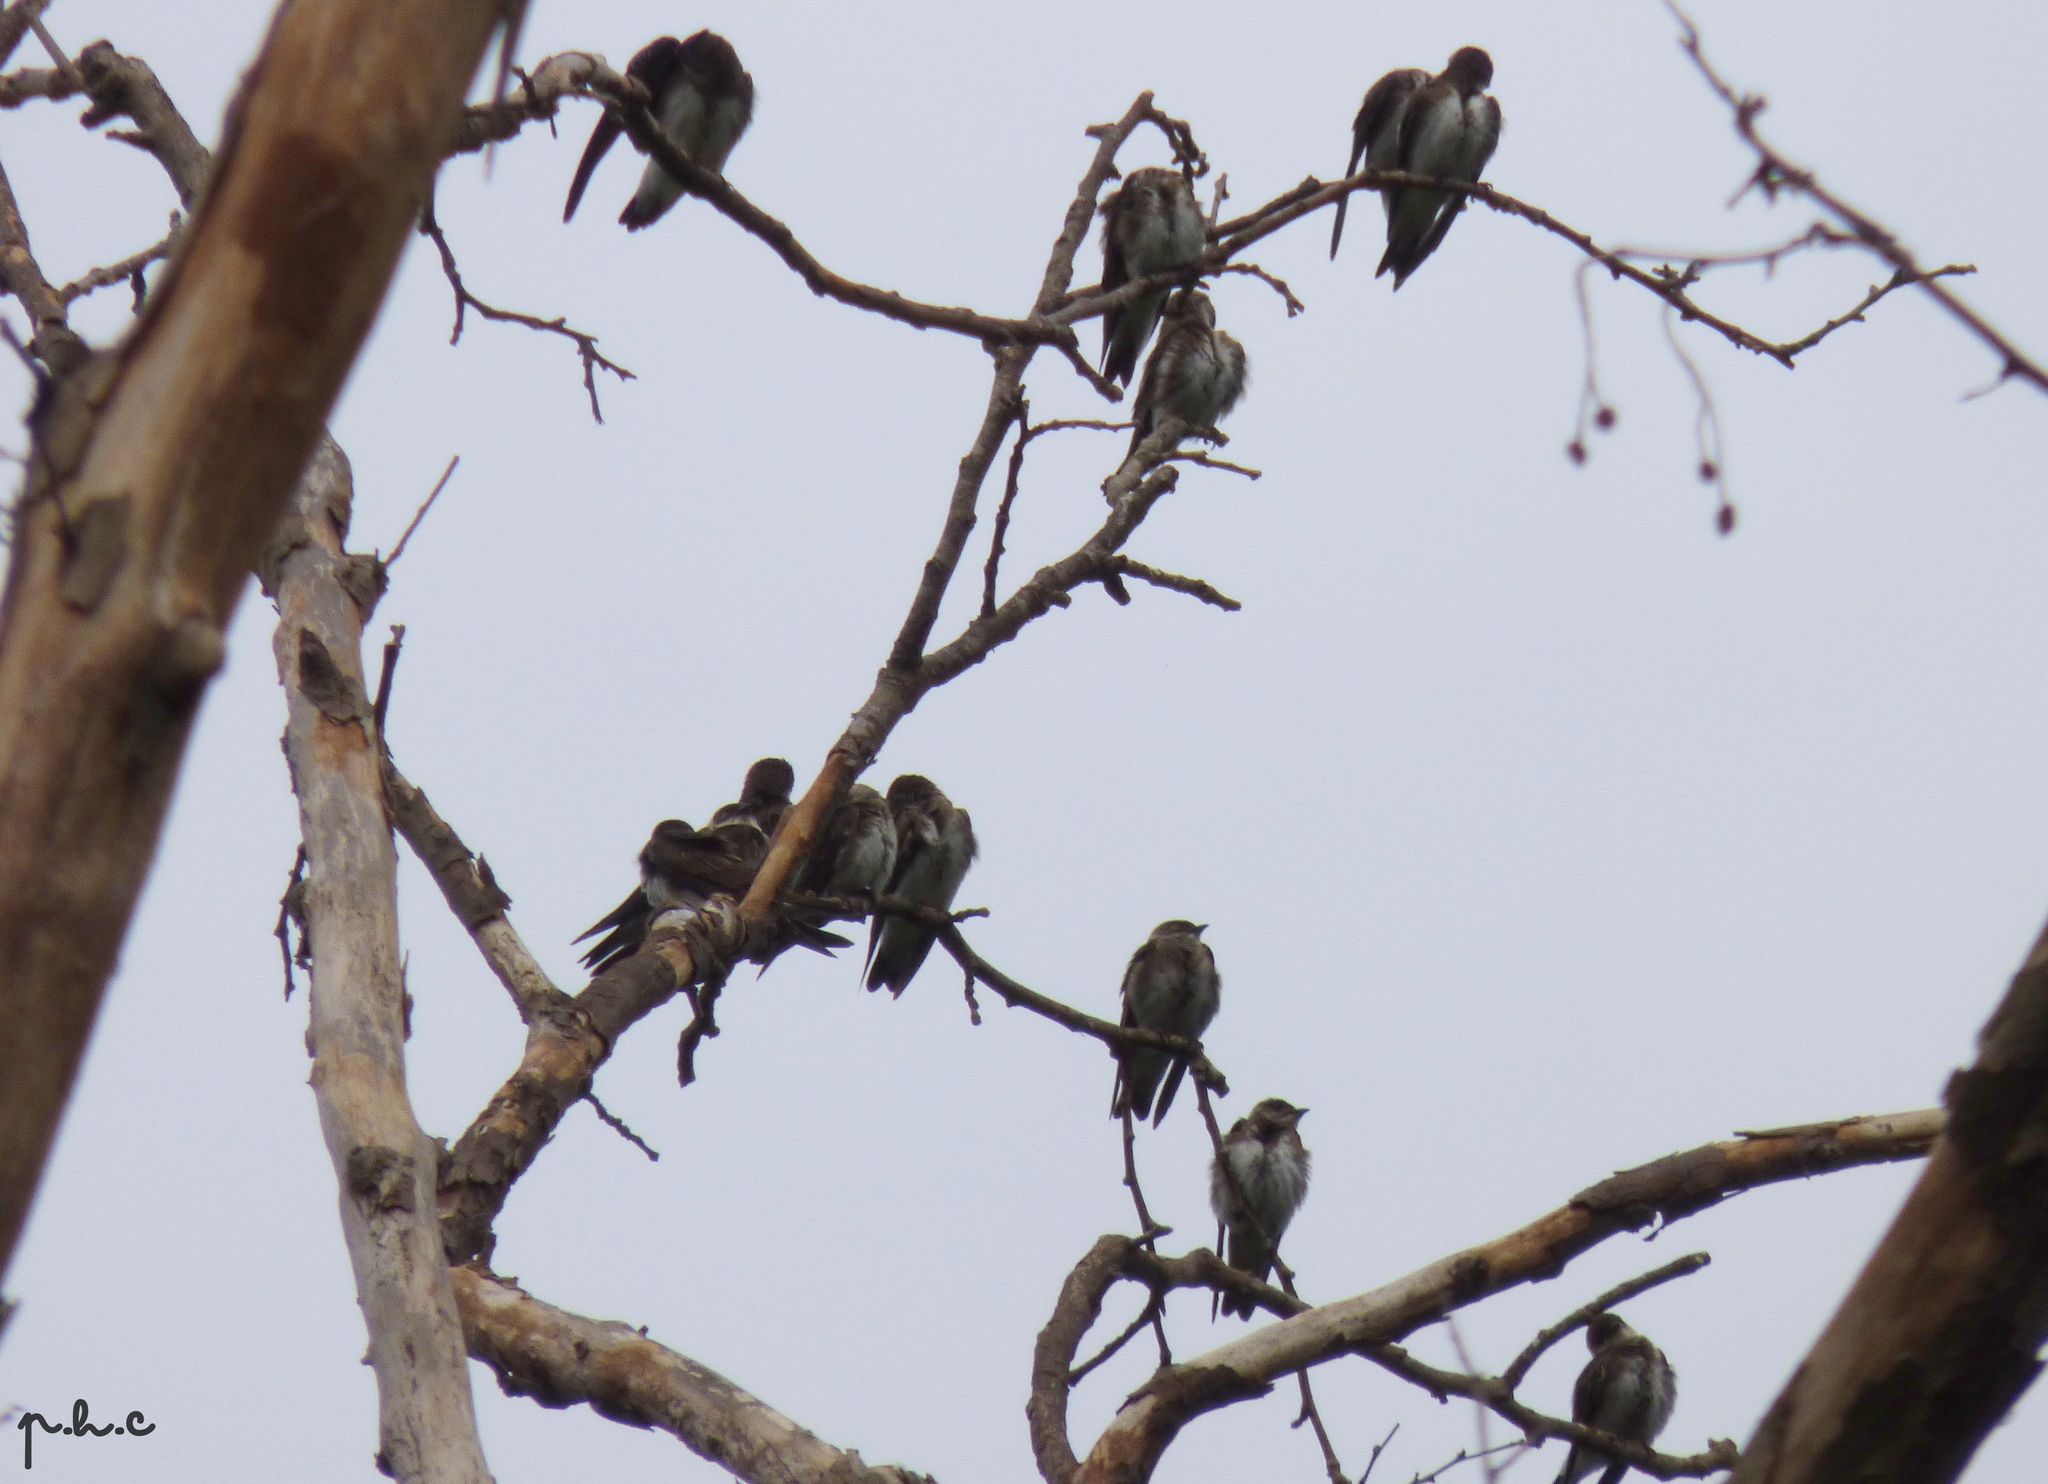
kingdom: Animalia
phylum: Chordata
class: Aves
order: Passeriformes
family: Hirundinidae
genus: Progne
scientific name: Progne tapera
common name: Brown-chested martin
